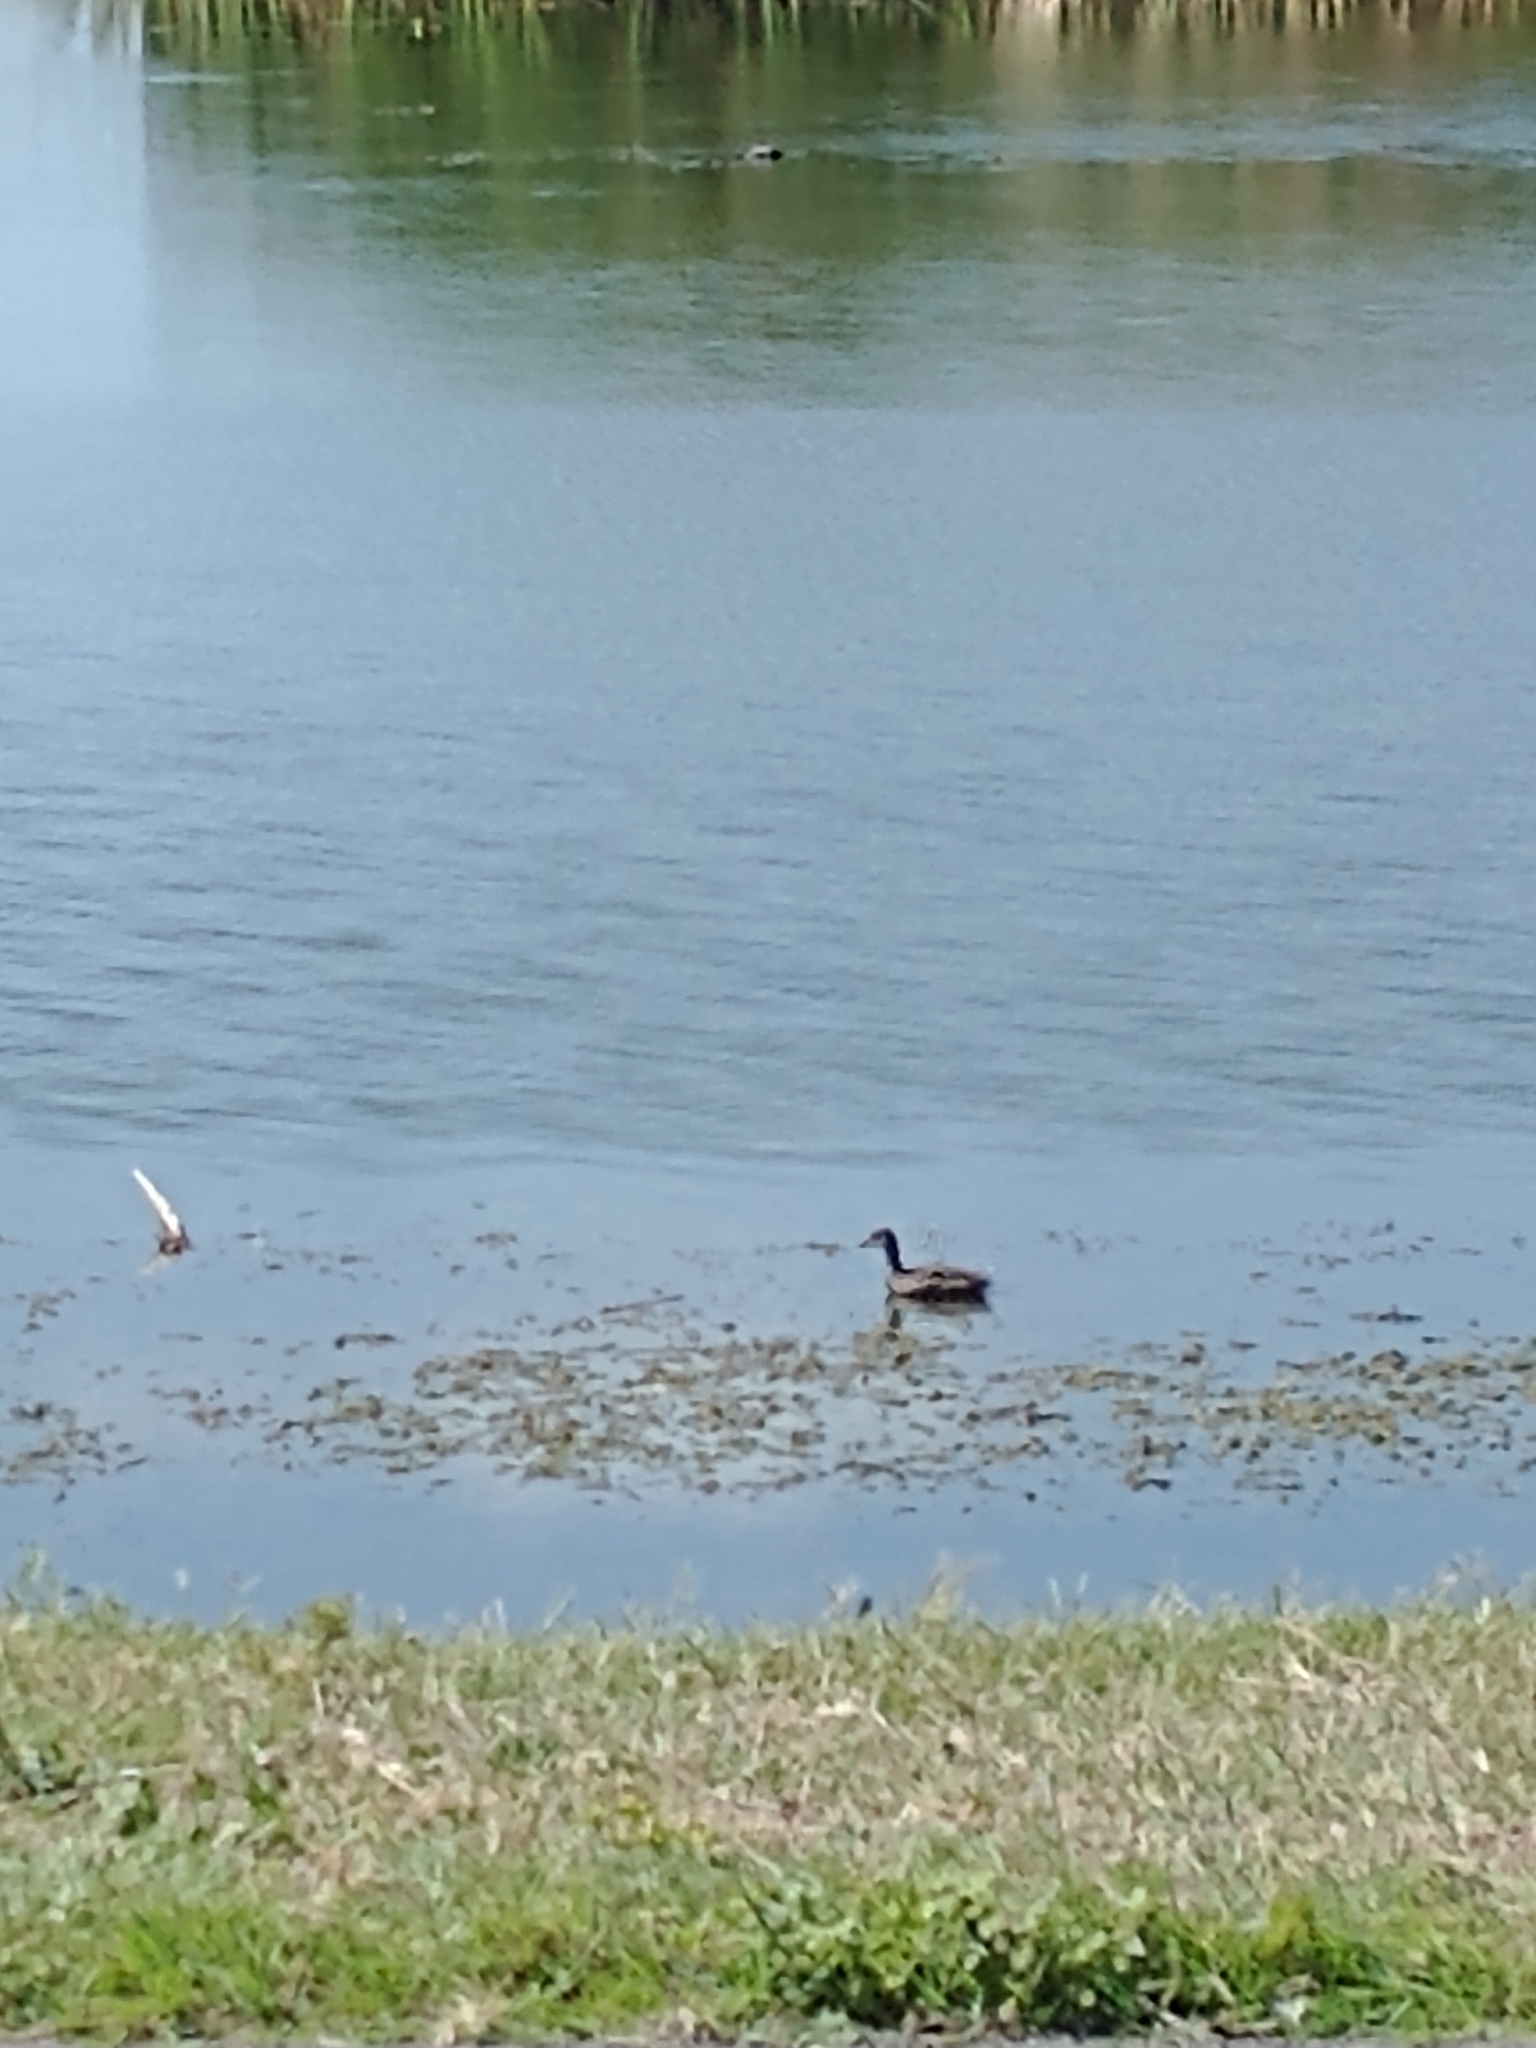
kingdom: Animalia
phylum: Chordata
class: Aves
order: Gruiformes
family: Rallidae
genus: Gallinula
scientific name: Gallinula chloropus
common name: Common moorhen
